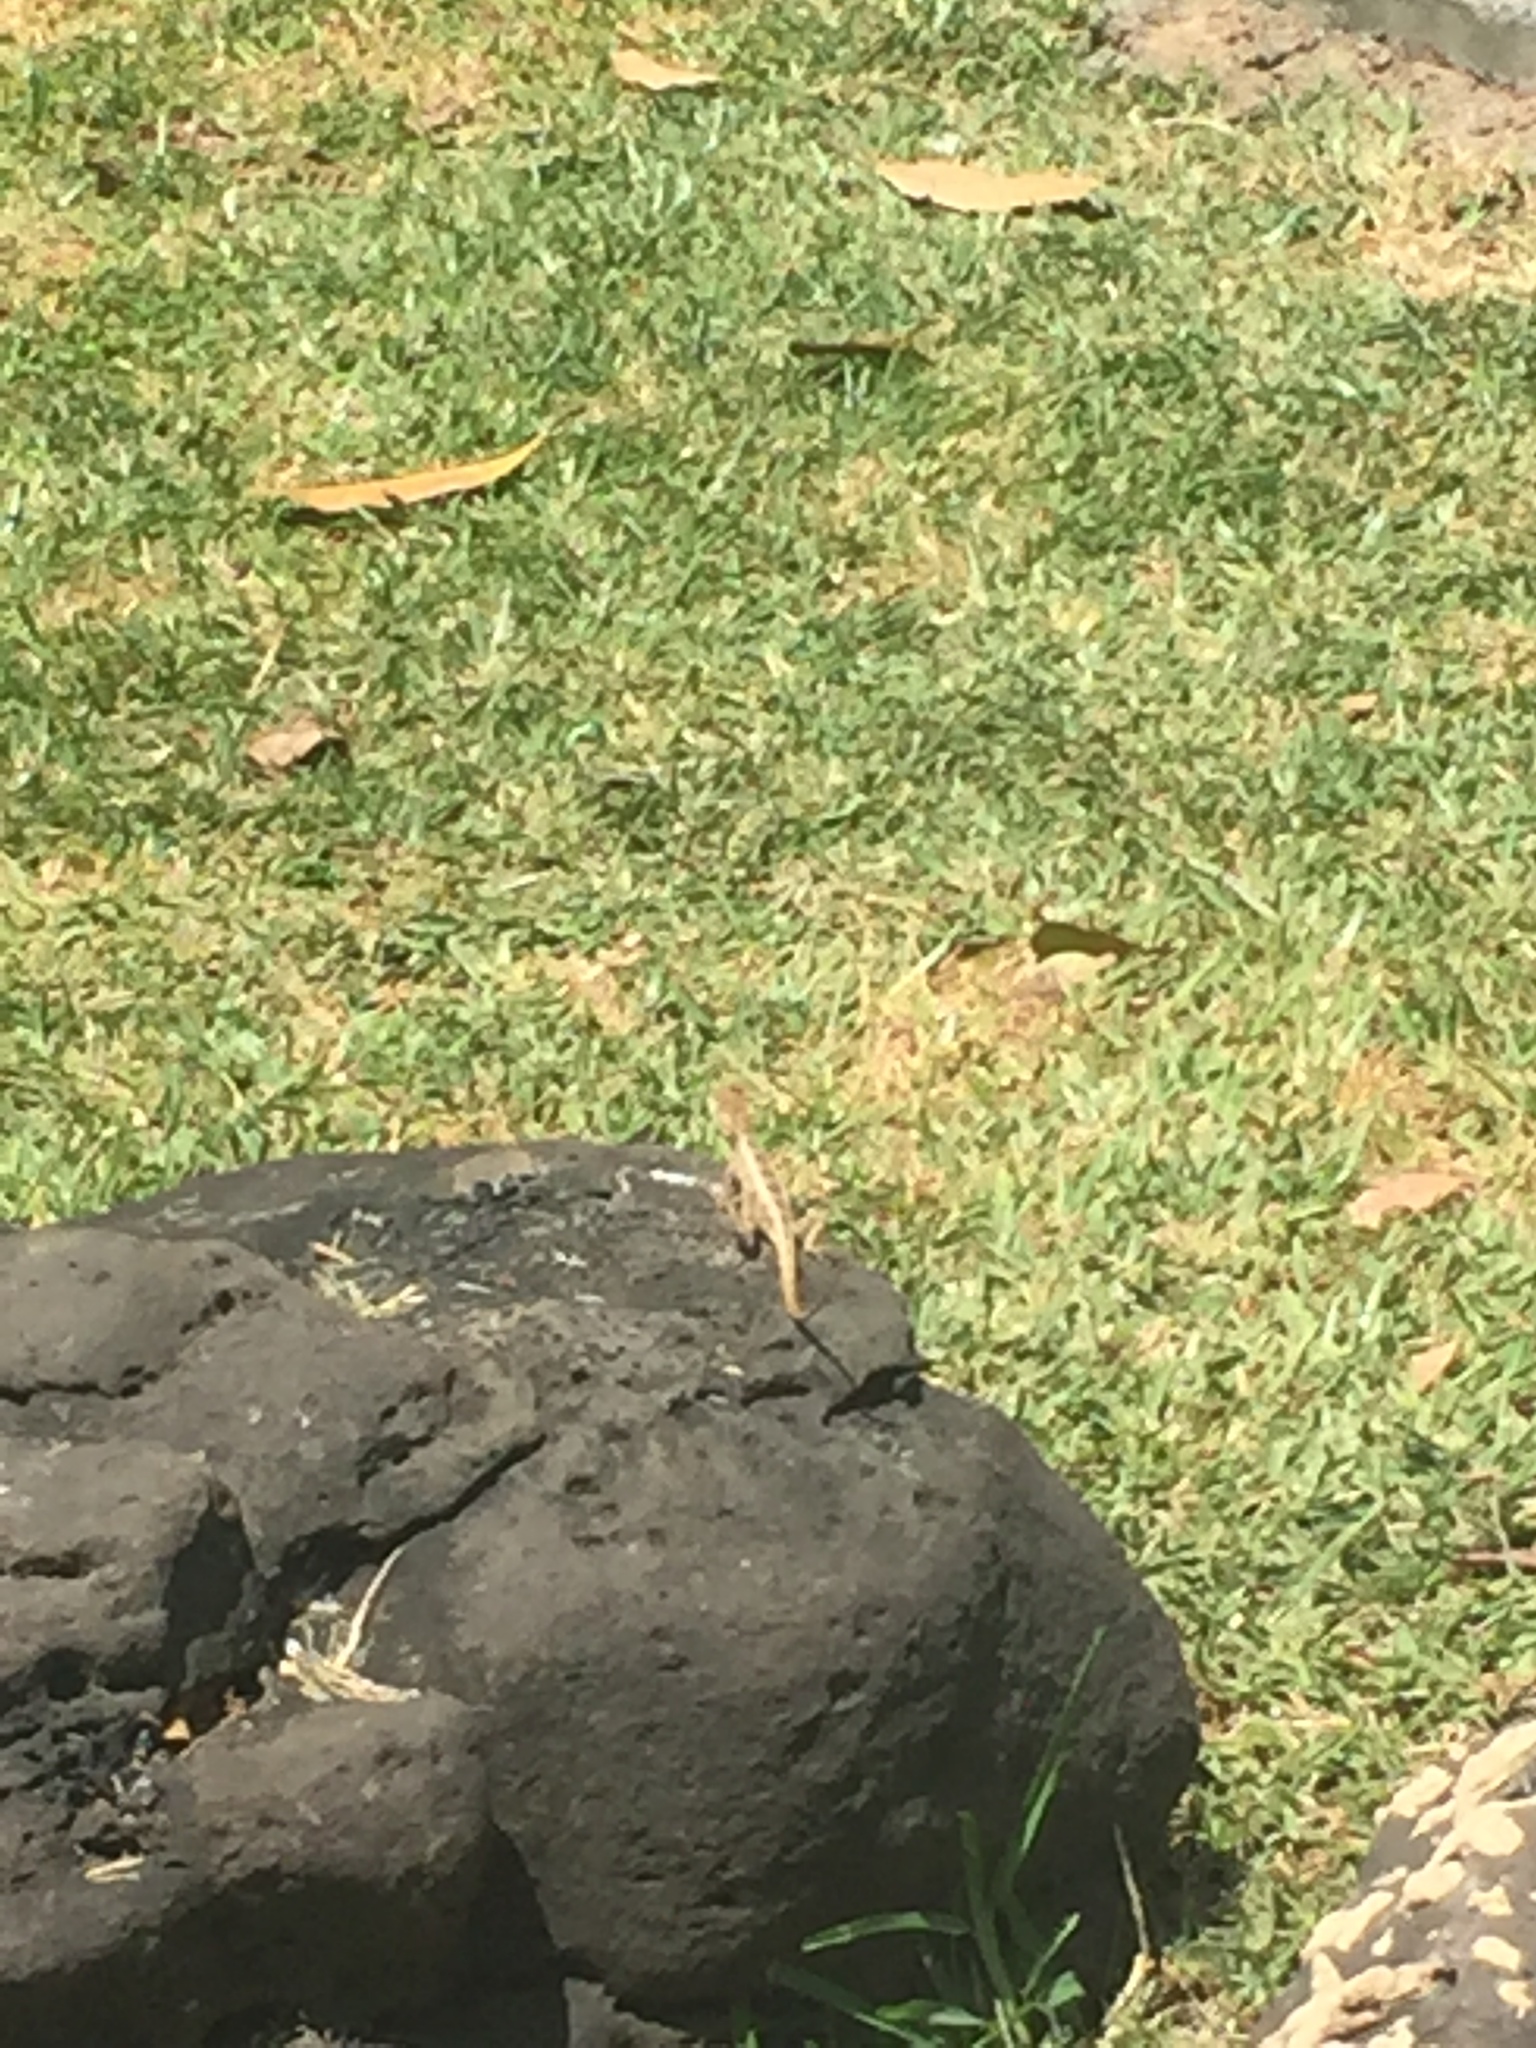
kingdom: Animalia
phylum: Chordata
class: Squamata
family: Agamidae
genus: Calotes
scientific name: Calotes versicolor
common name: Oriental garden lizard
